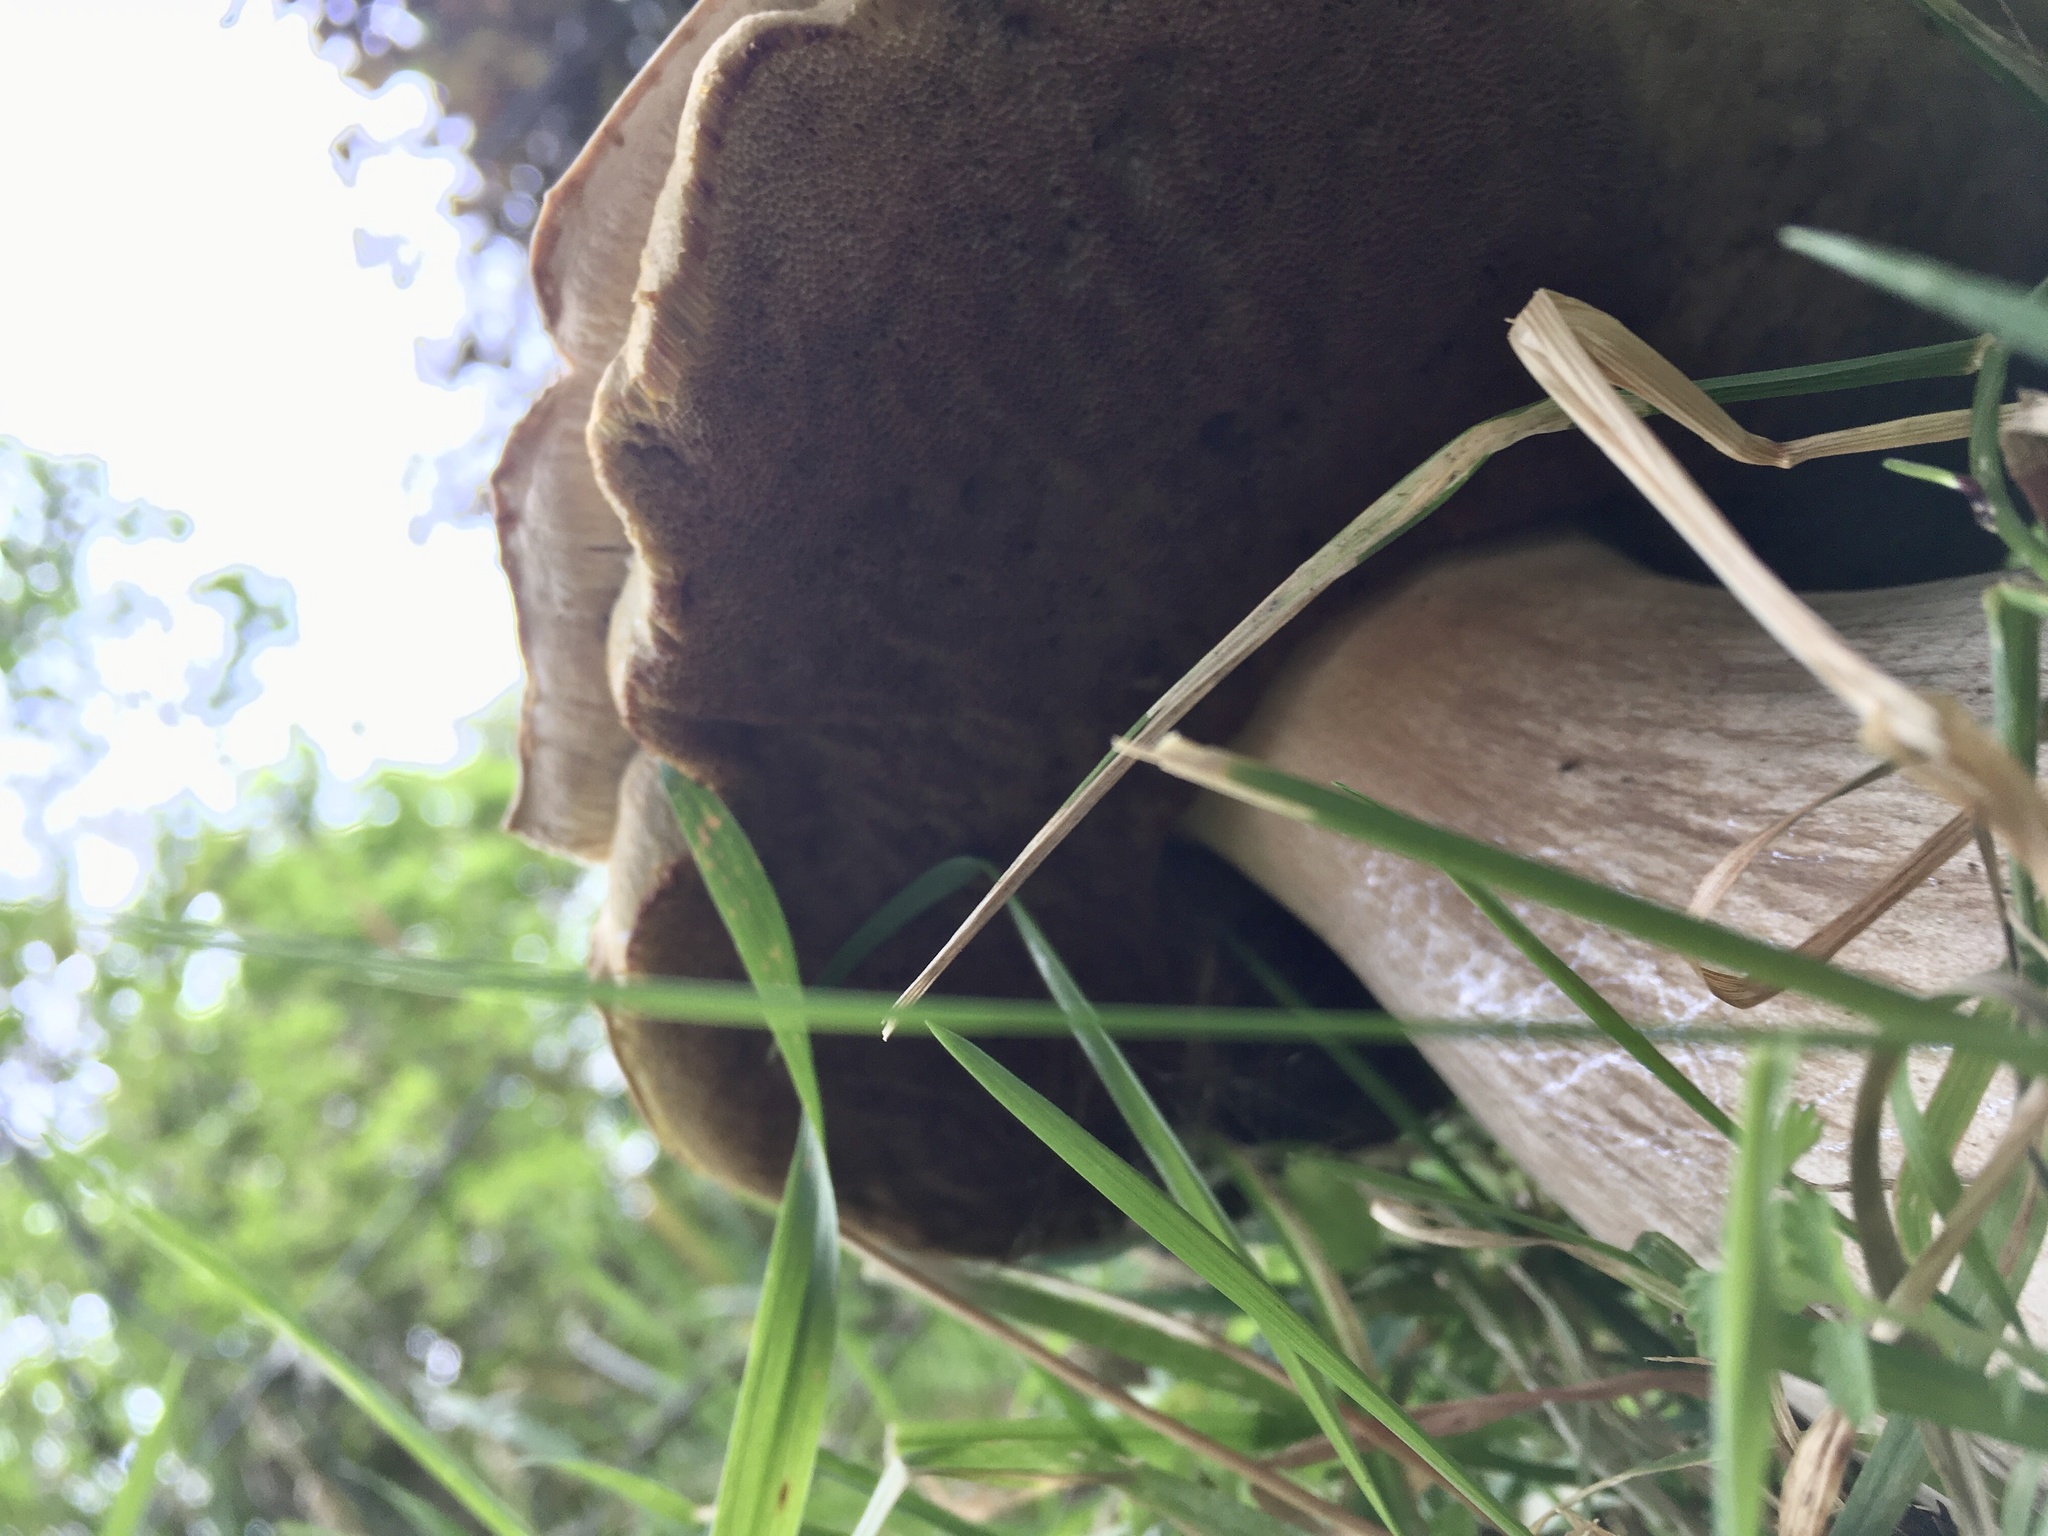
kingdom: Fungi
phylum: Basidiomycota
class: Agaricomycetes
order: Boletales
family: Boletaceae
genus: Boletus
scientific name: Boletus edulis
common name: Cep
